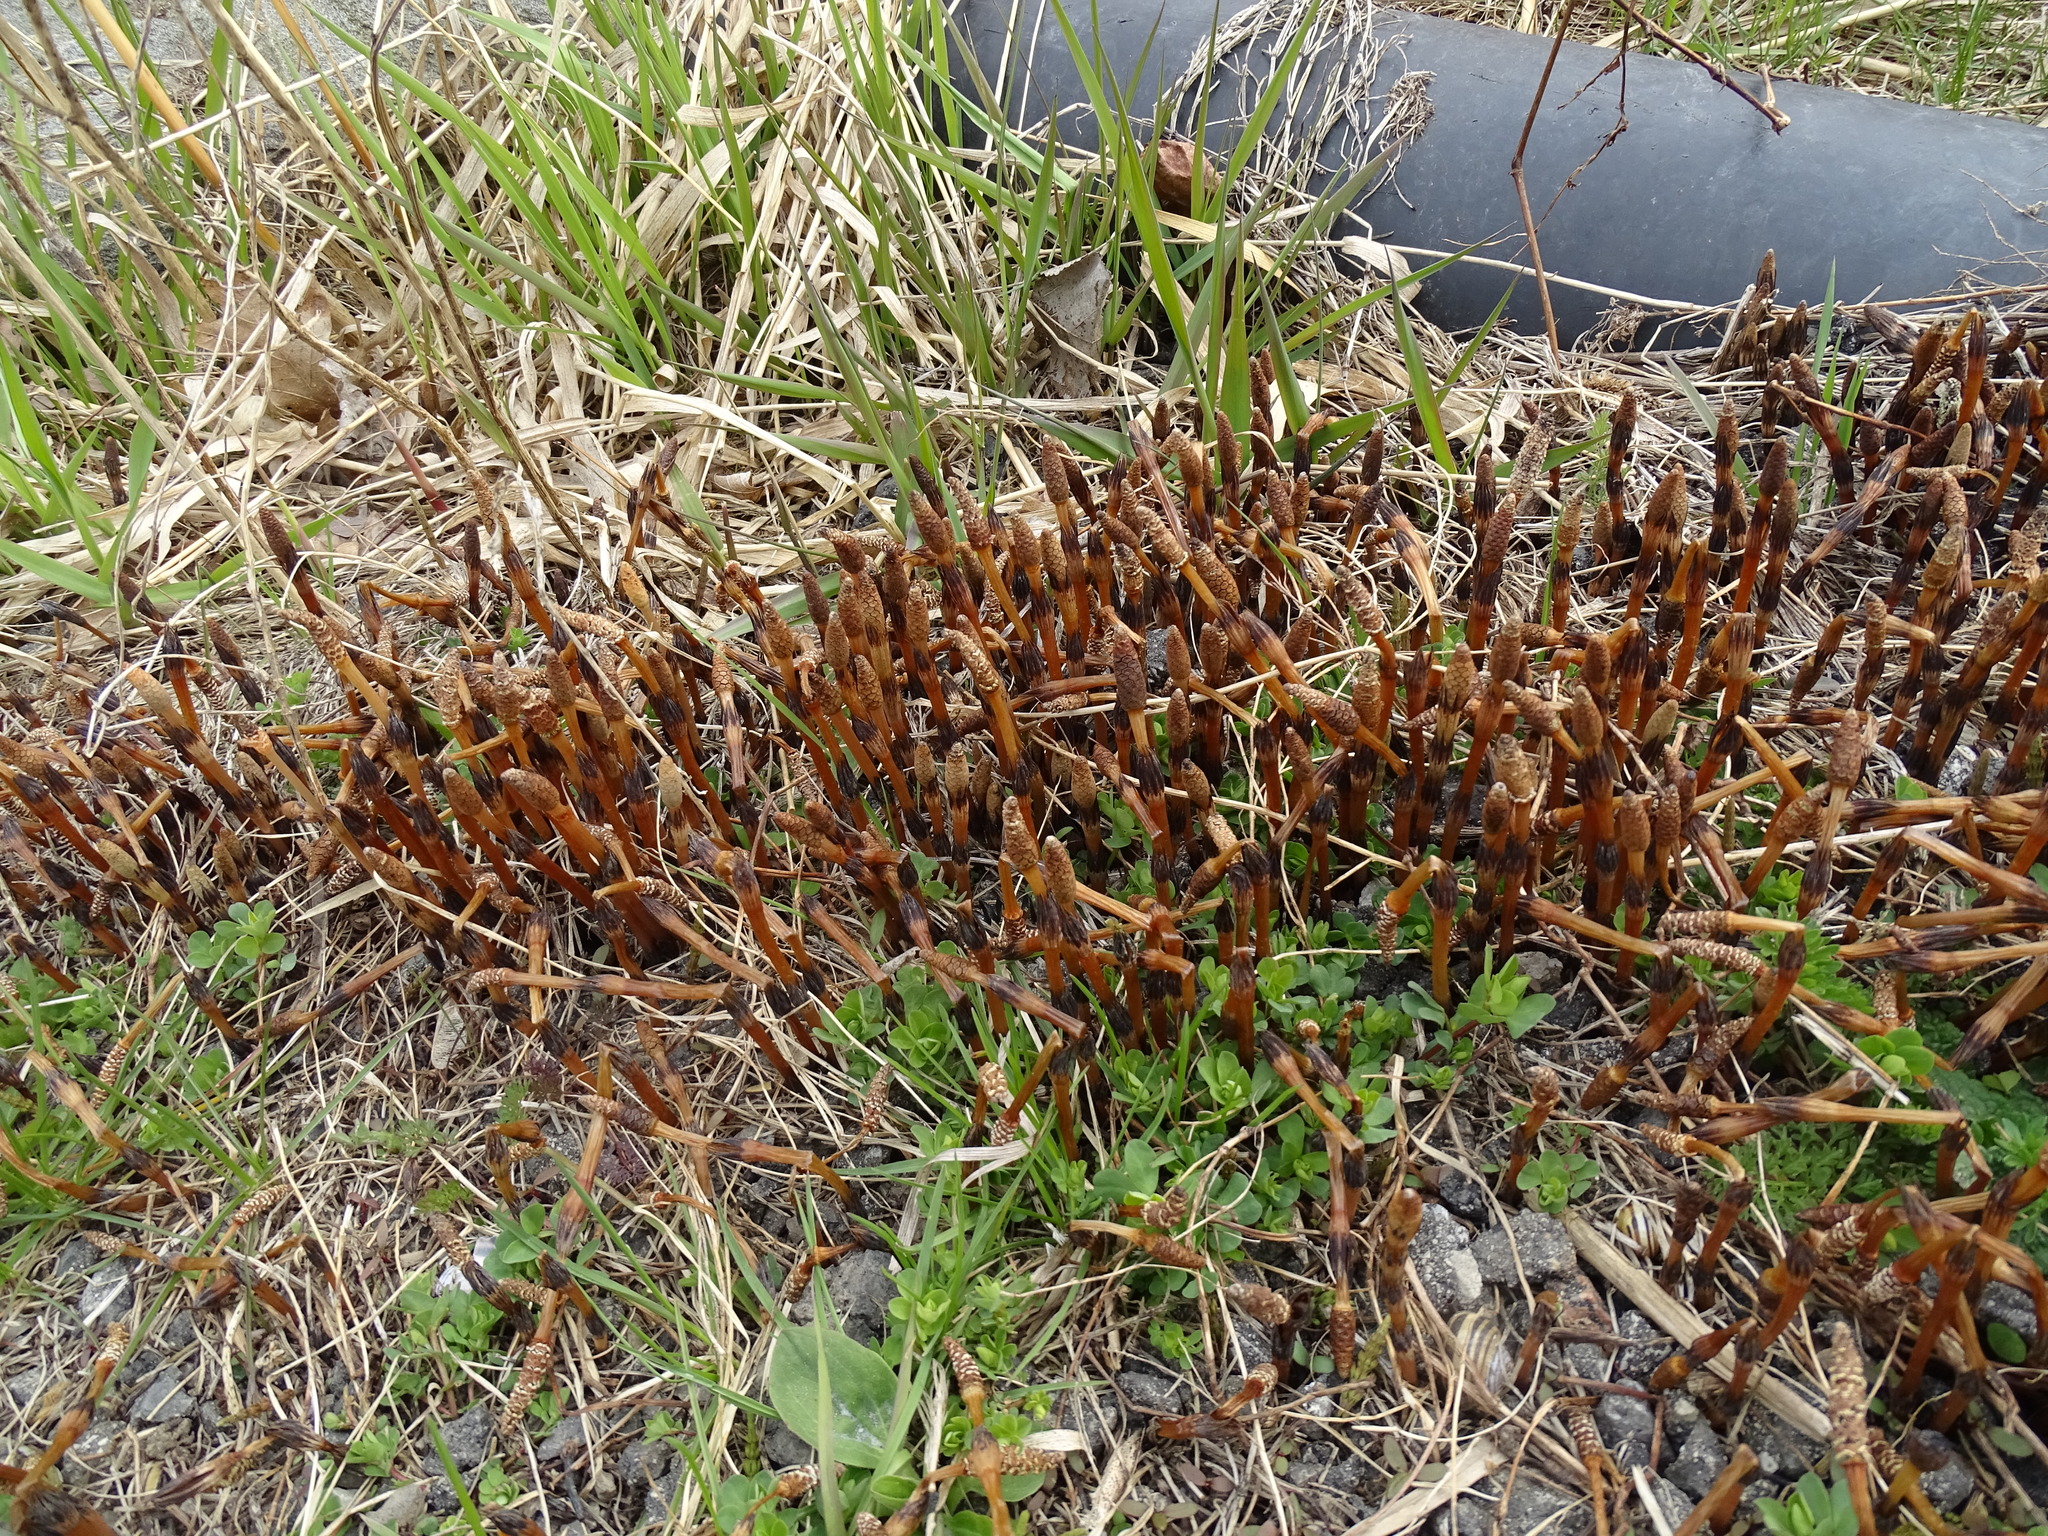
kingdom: Plantae
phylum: Tracheophyta
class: Polypodiopsida
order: Equisetales
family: Equisetaceae
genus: Equisetum
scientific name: Equisetum arvense
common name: Field horsetail
